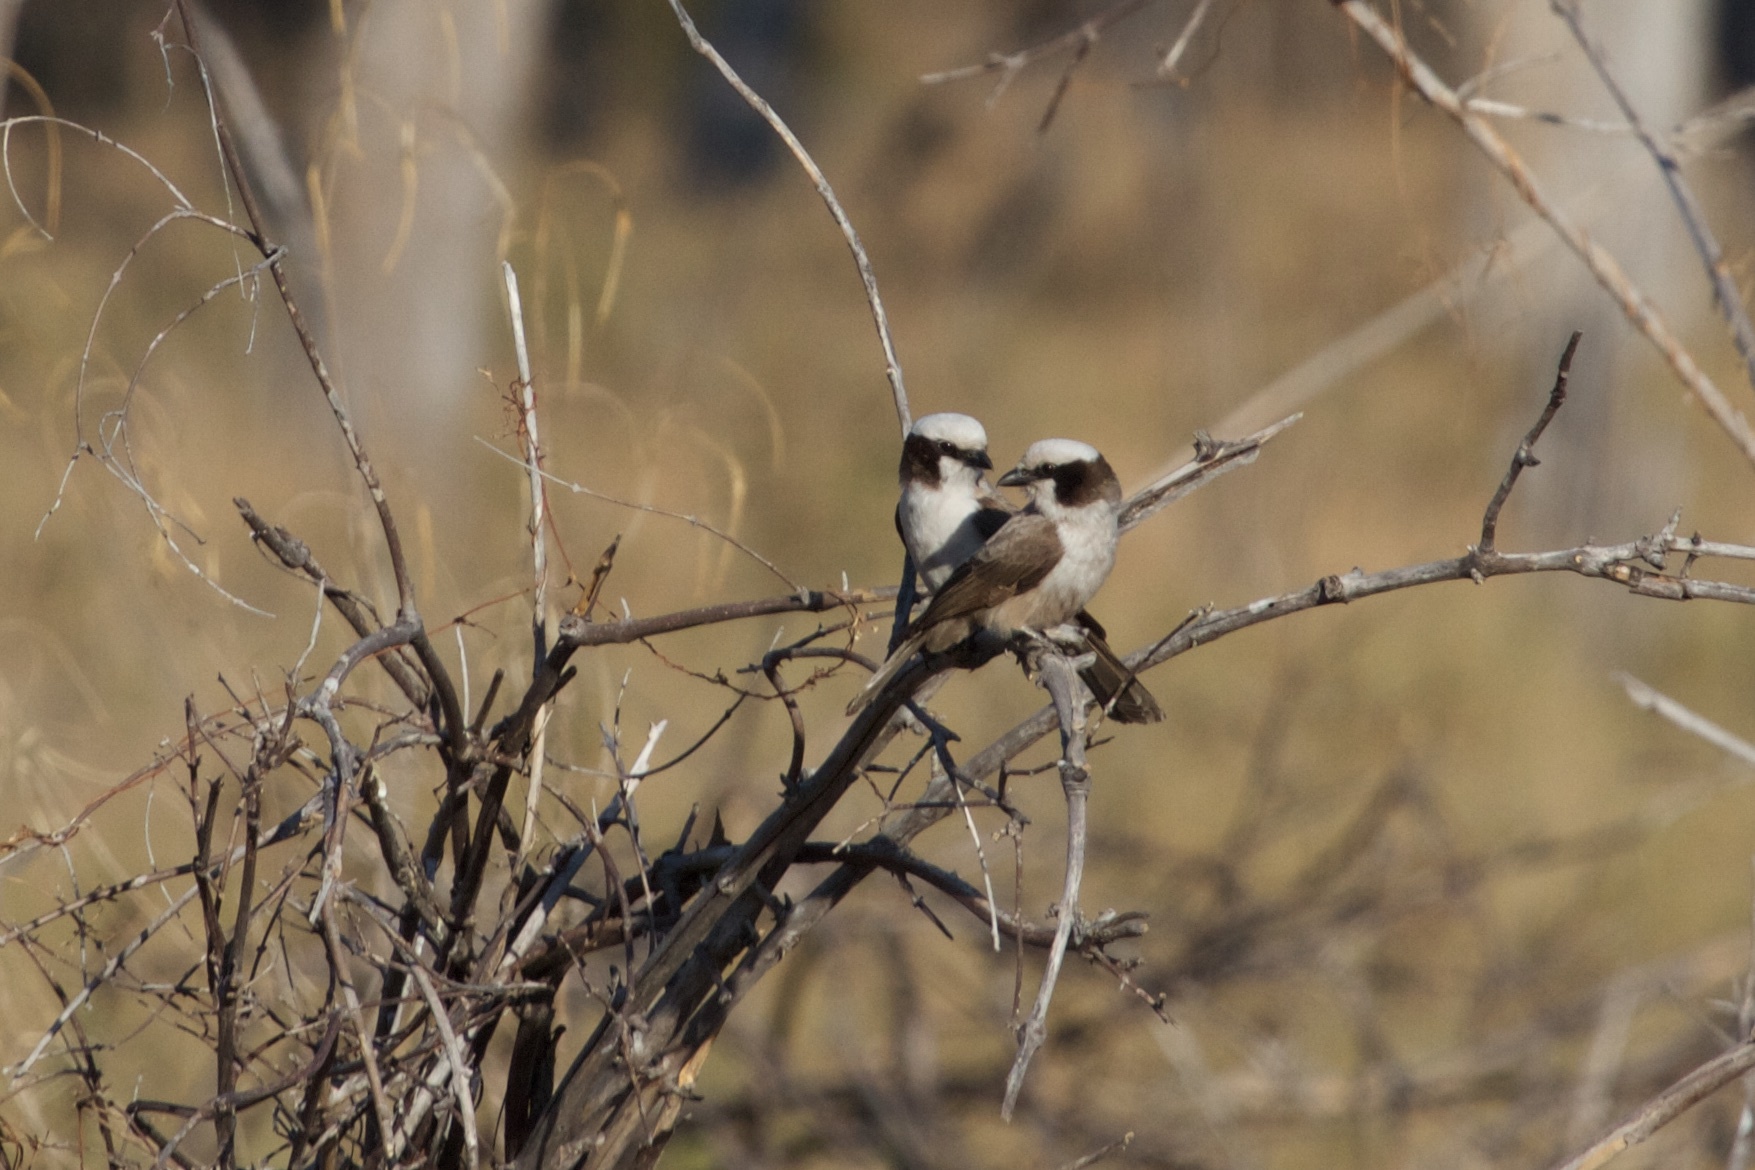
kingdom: Animalia
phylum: Chordata
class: Aves
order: Passeriformes
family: Laniidae
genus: Eurocephalus
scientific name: Eurocephalus anguitimens
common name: Southern white-crowned shrike
